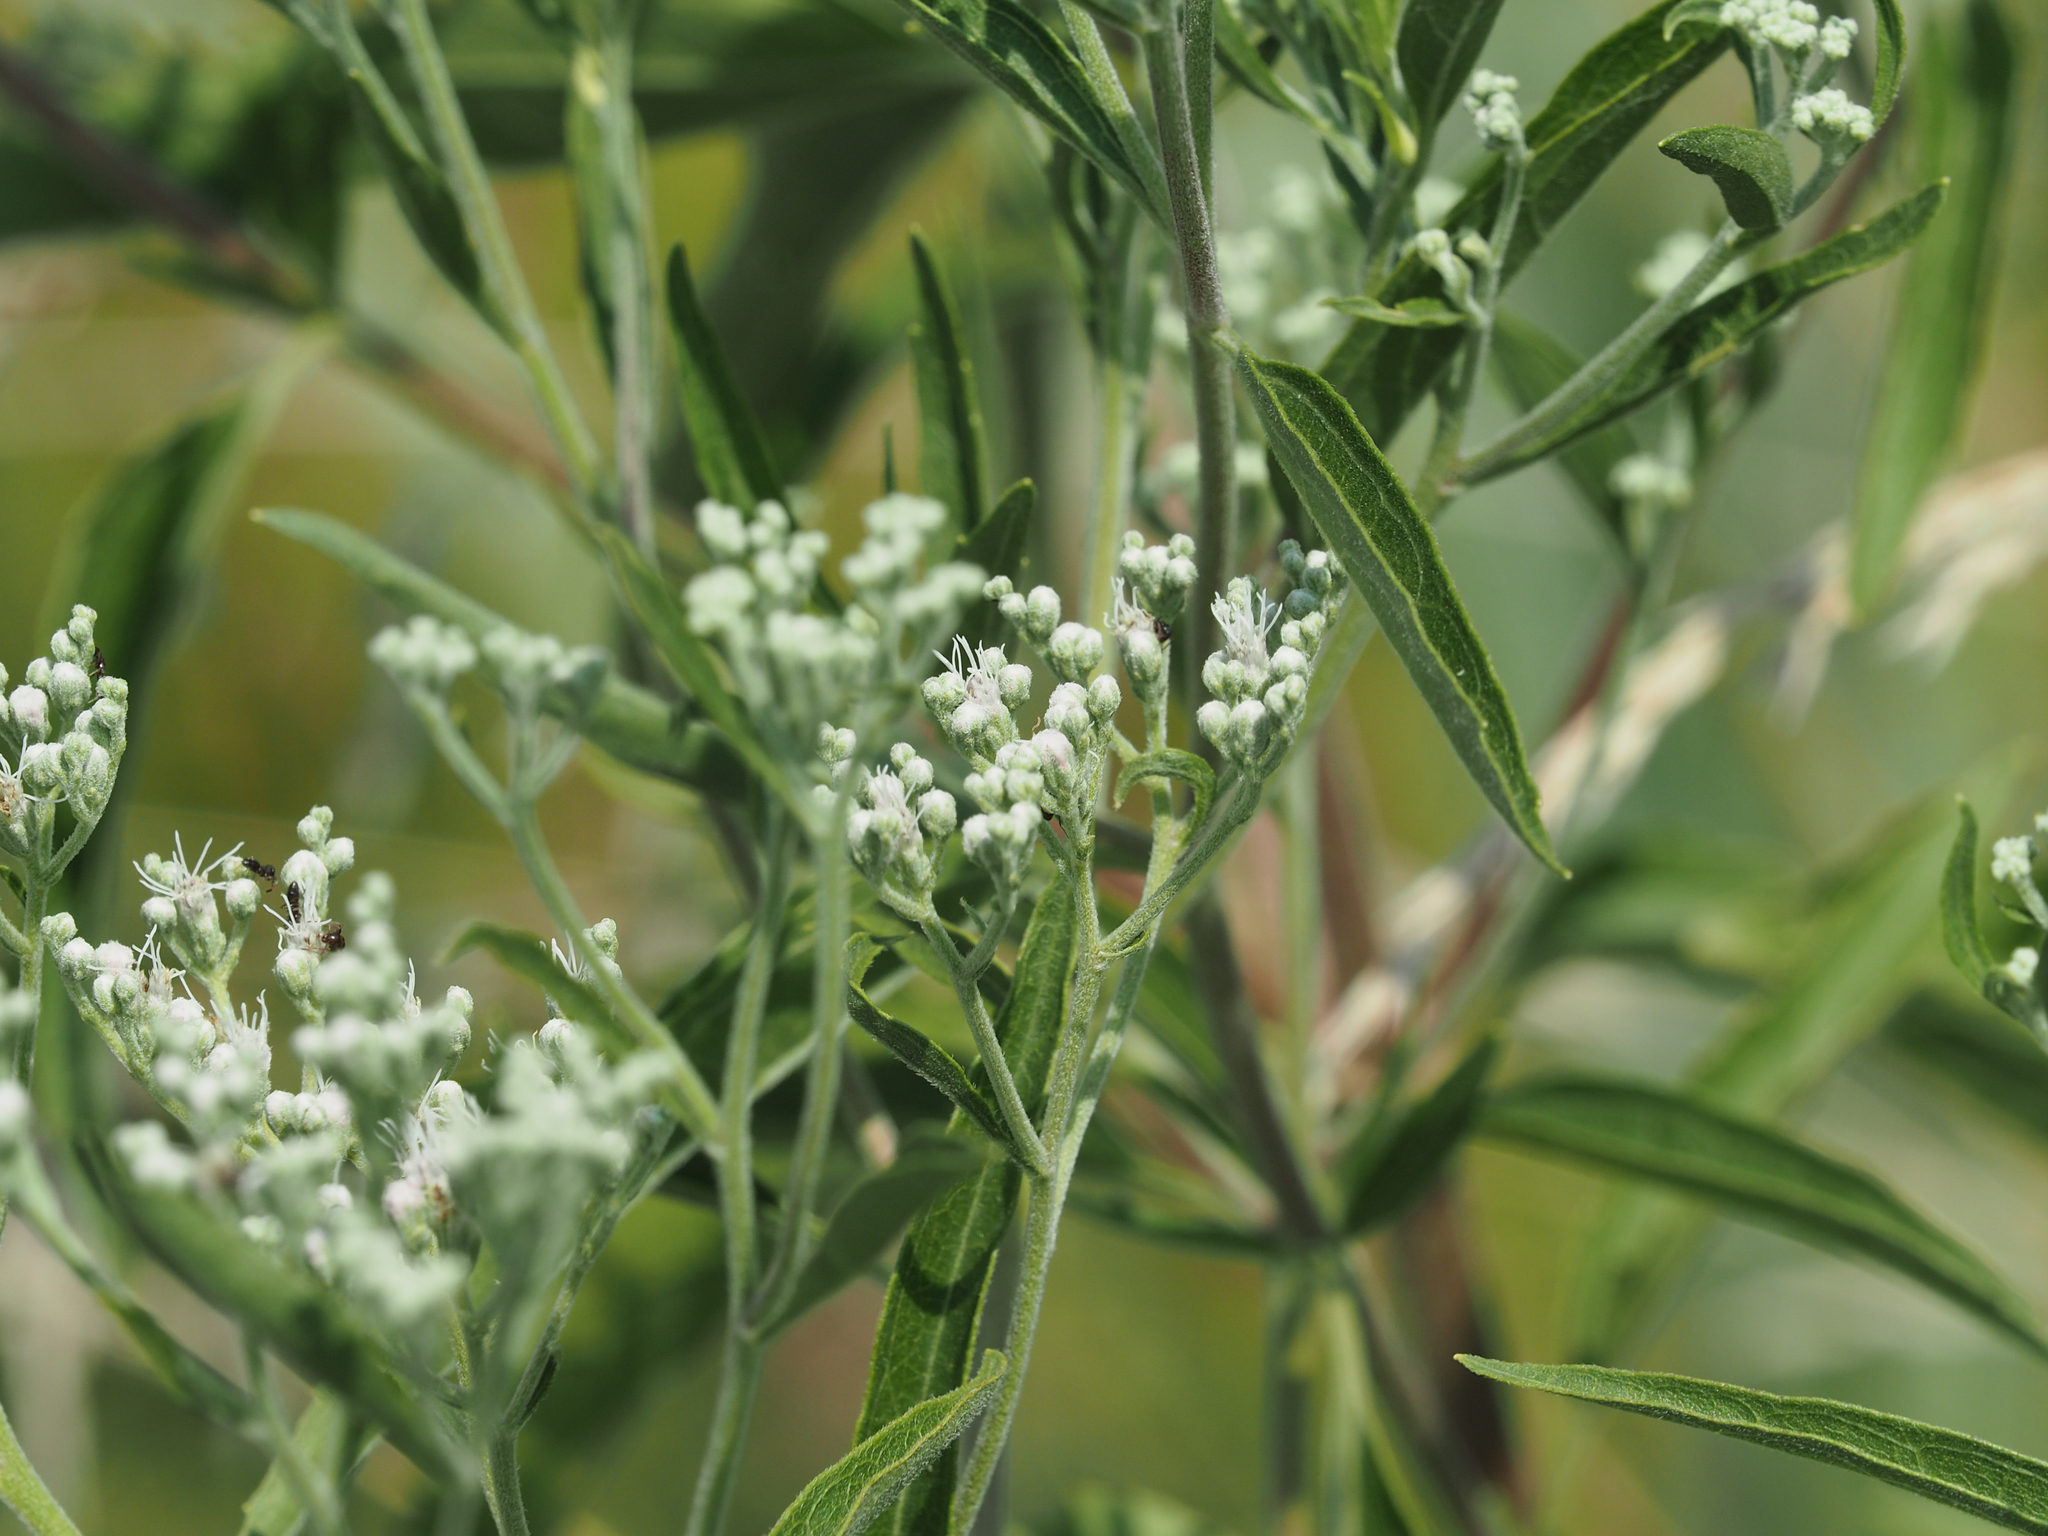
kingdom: Plantae
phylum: Tracheophyta
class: Magnoliopsida
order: Asterales
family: Asteraceae
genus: Eupatorium
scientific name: Eupatorium serotinum
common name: Late boneset
